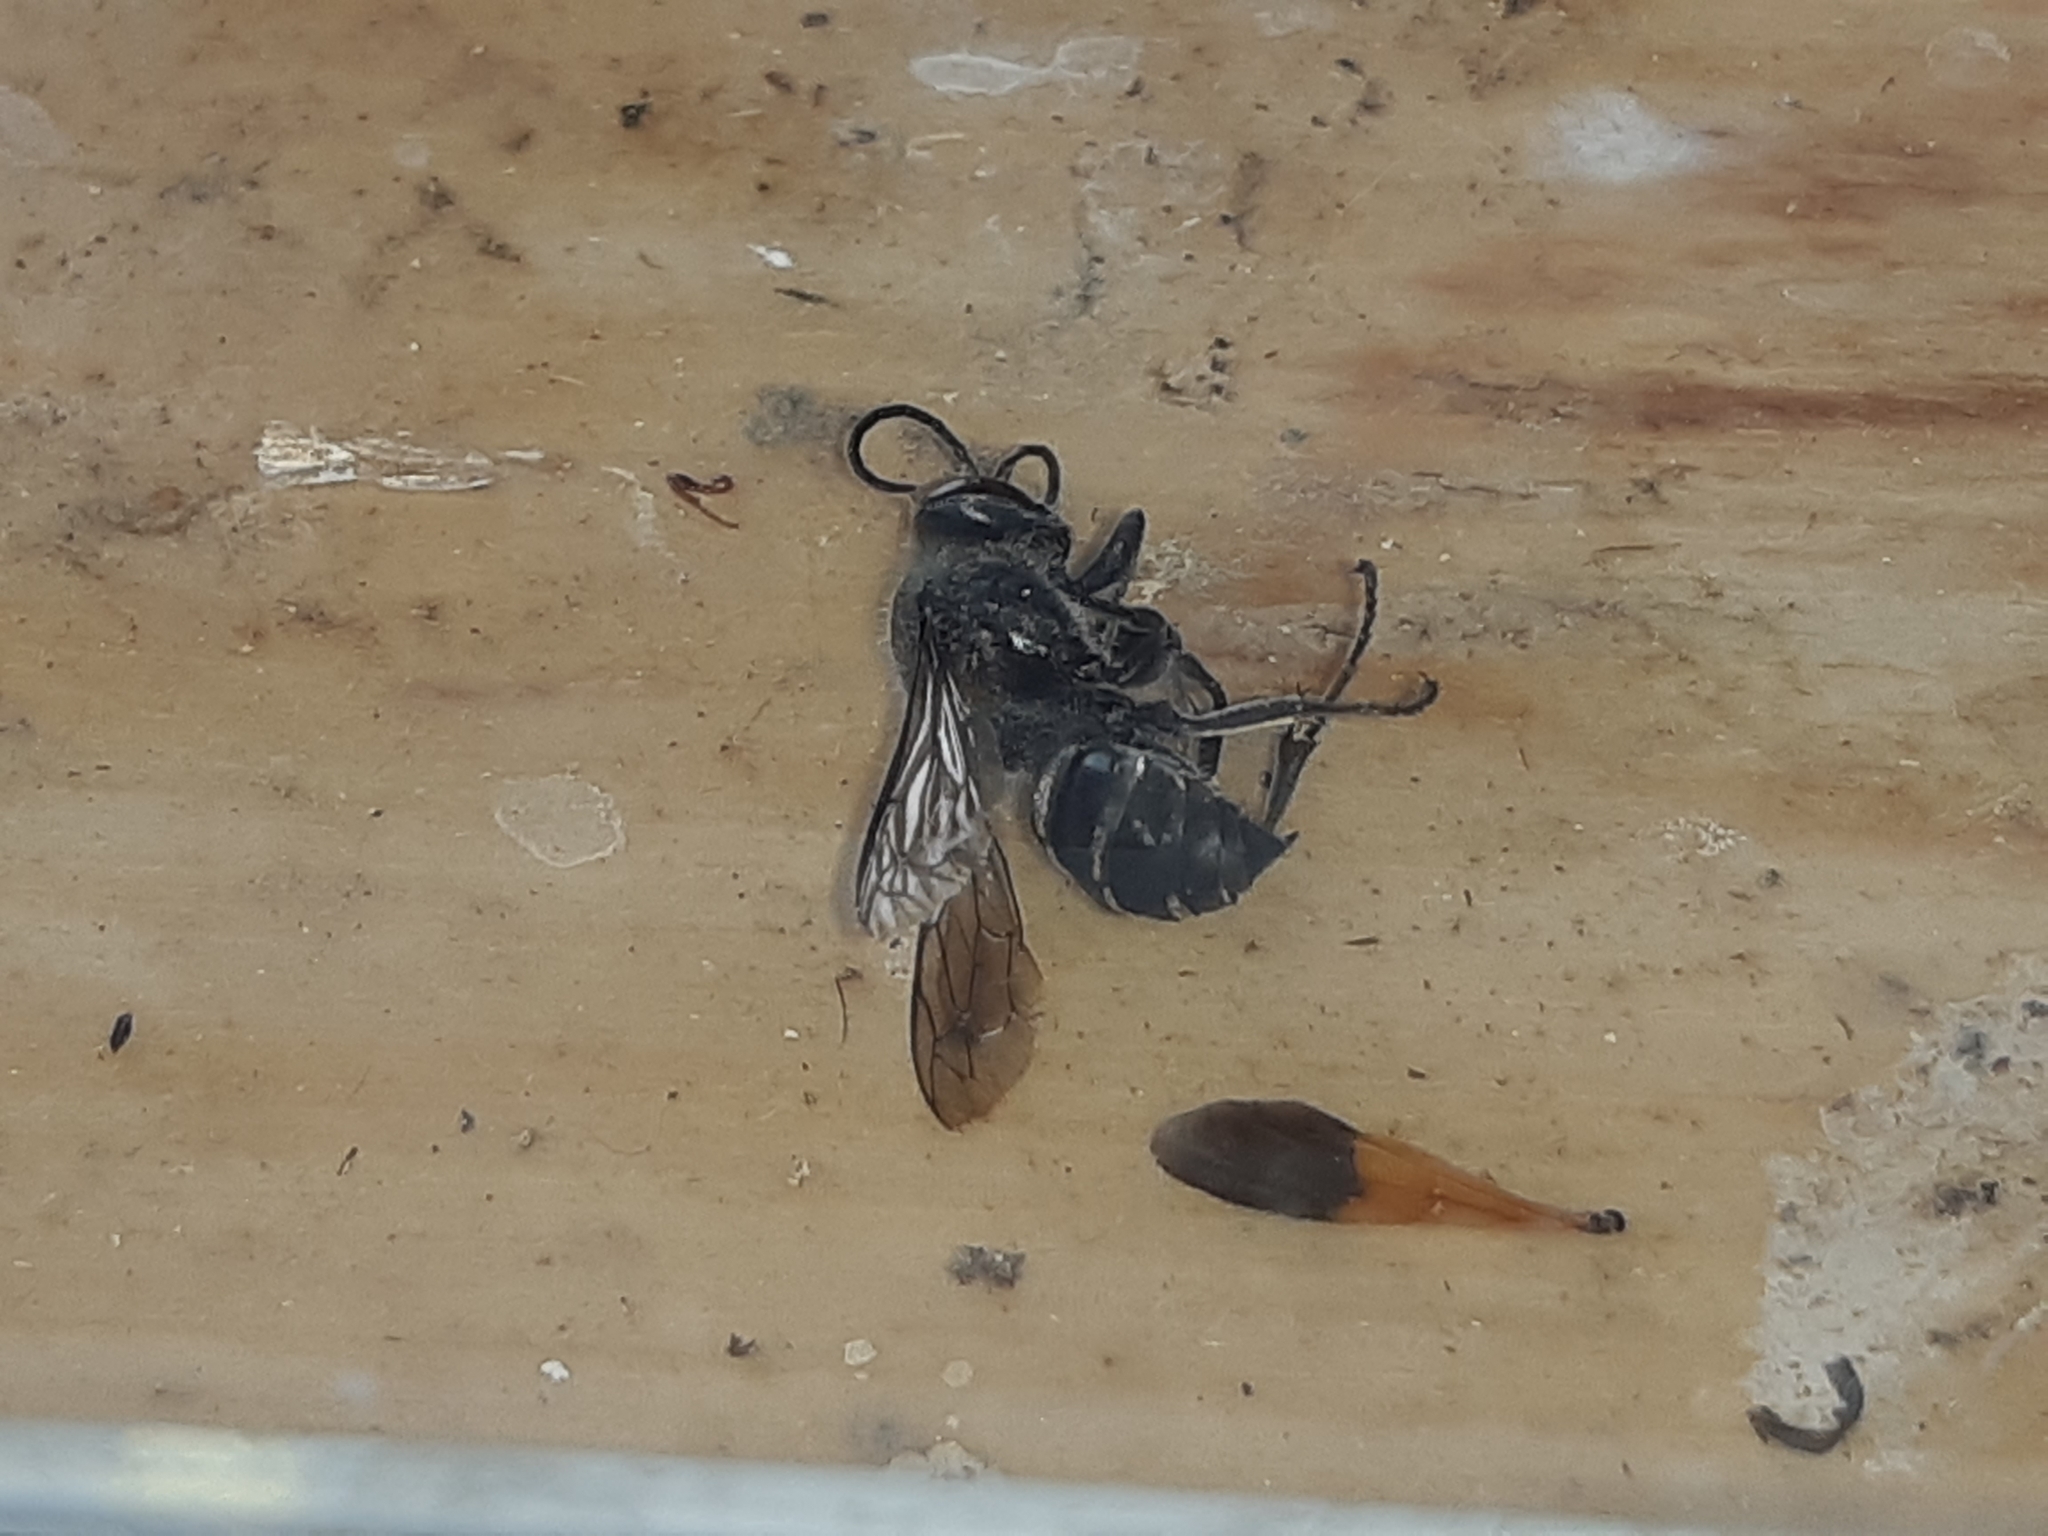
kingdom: Animalia
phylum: Arthropoda
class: Insecta
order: Hymenoptera
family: Crabronidae
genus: Pison
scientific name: Pison spinolae
